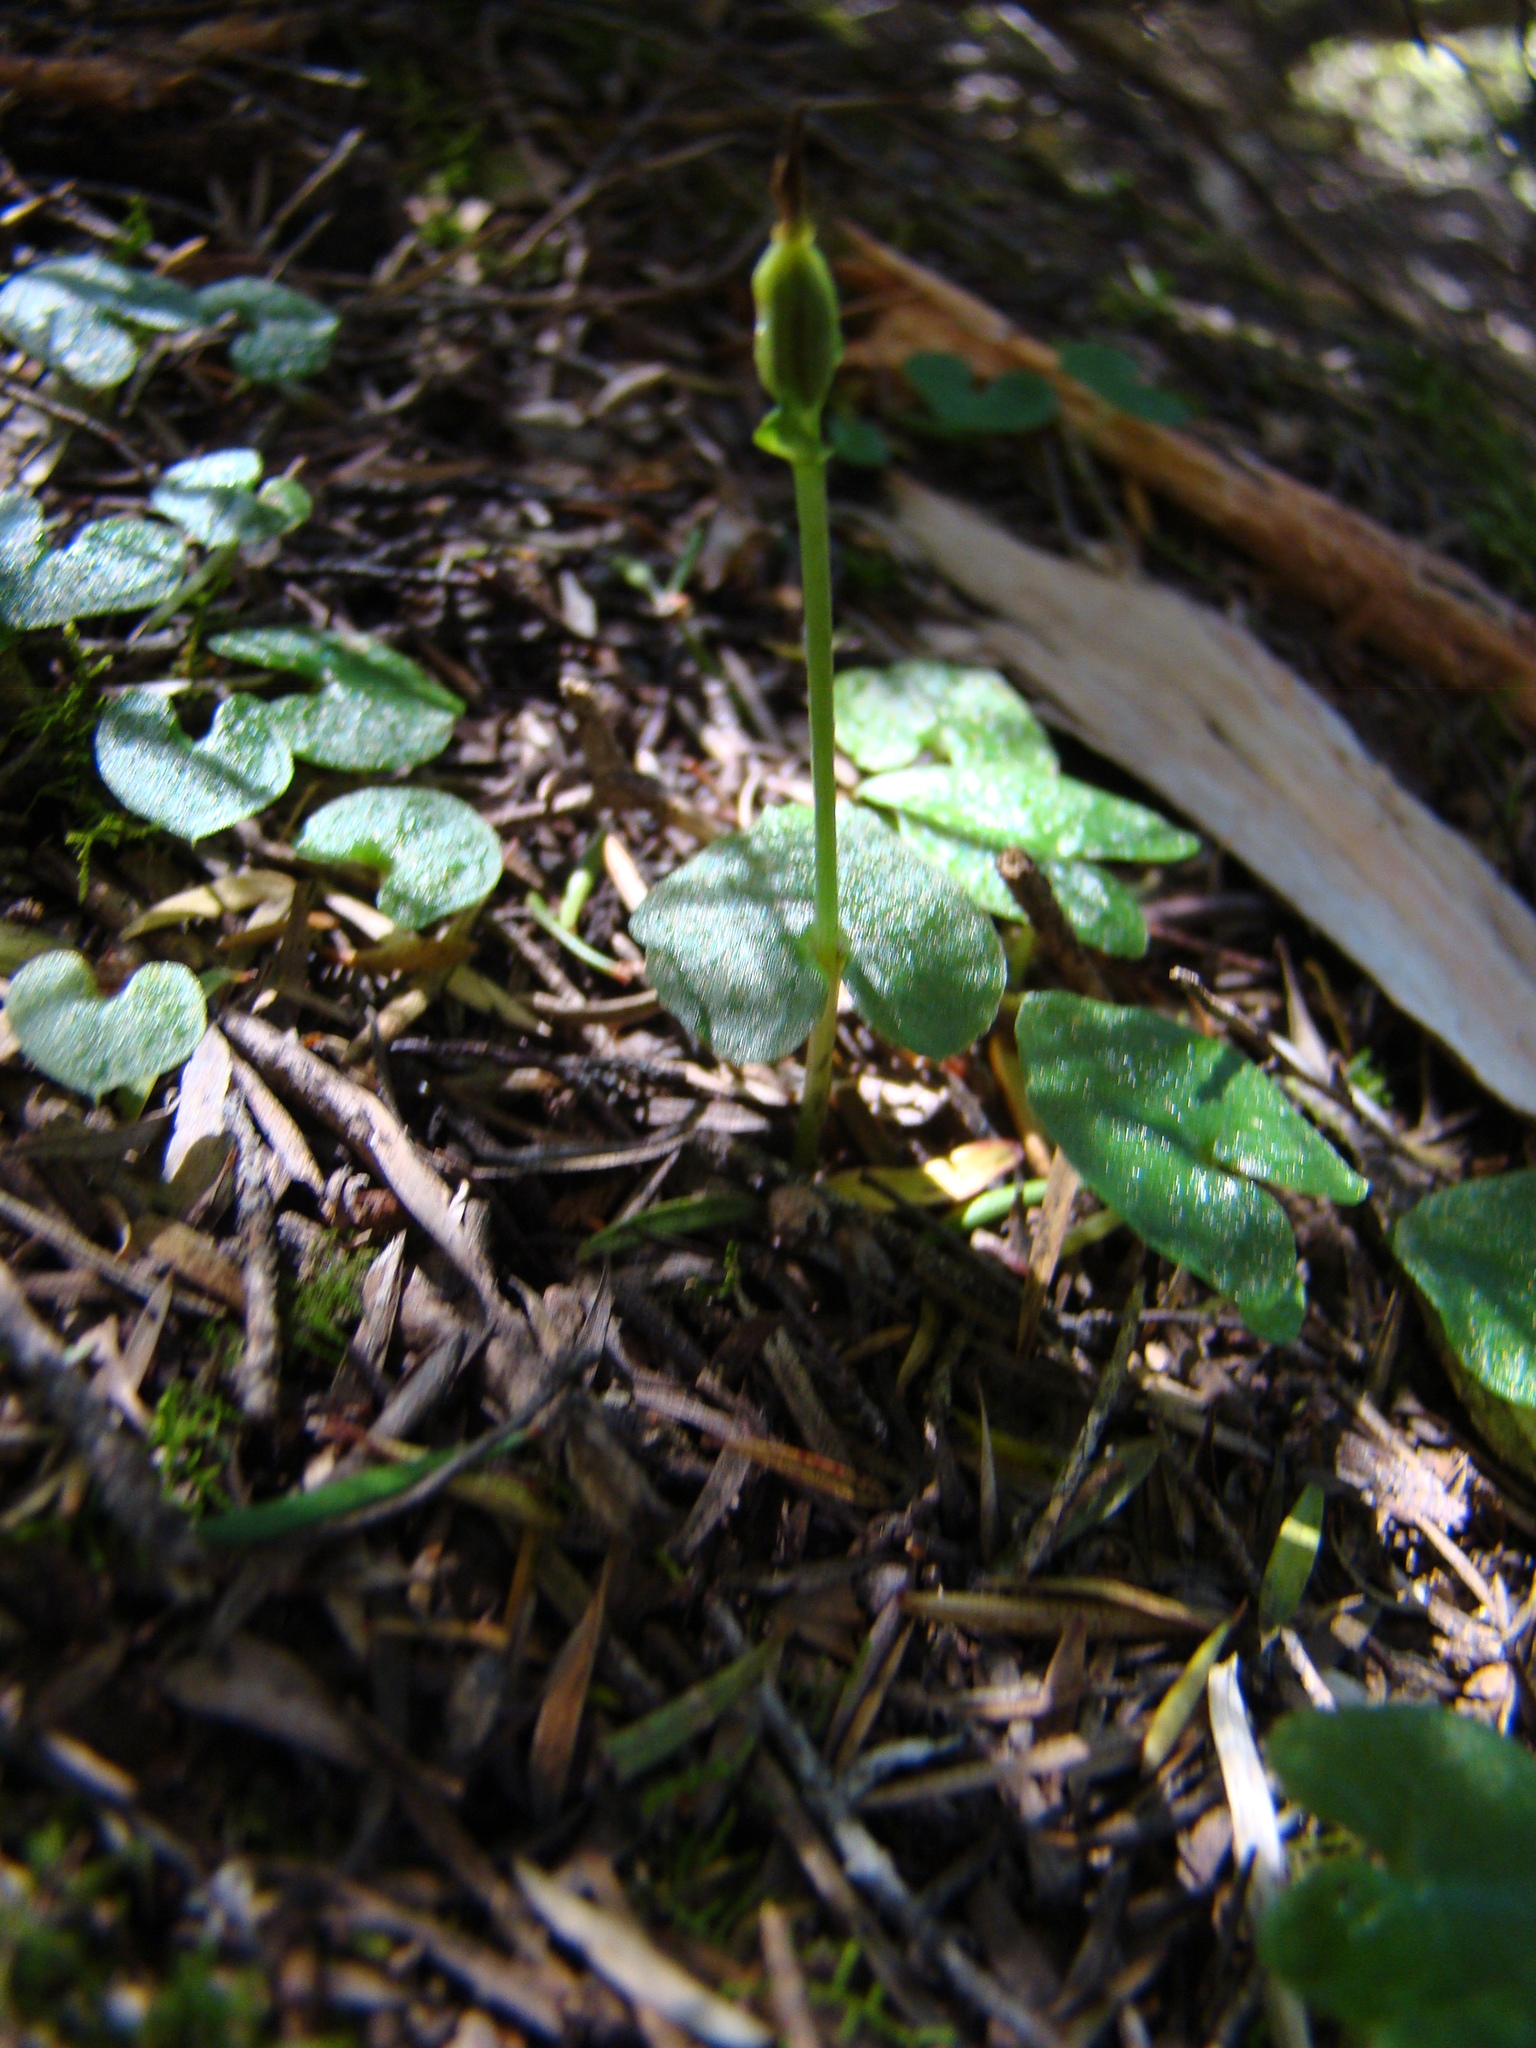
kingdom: Plantae
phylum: Tracheophyta
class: Liliopsida
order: Asparagales
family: Orchidaceae
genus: Acianthus
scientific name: Acianthus sinclairii
